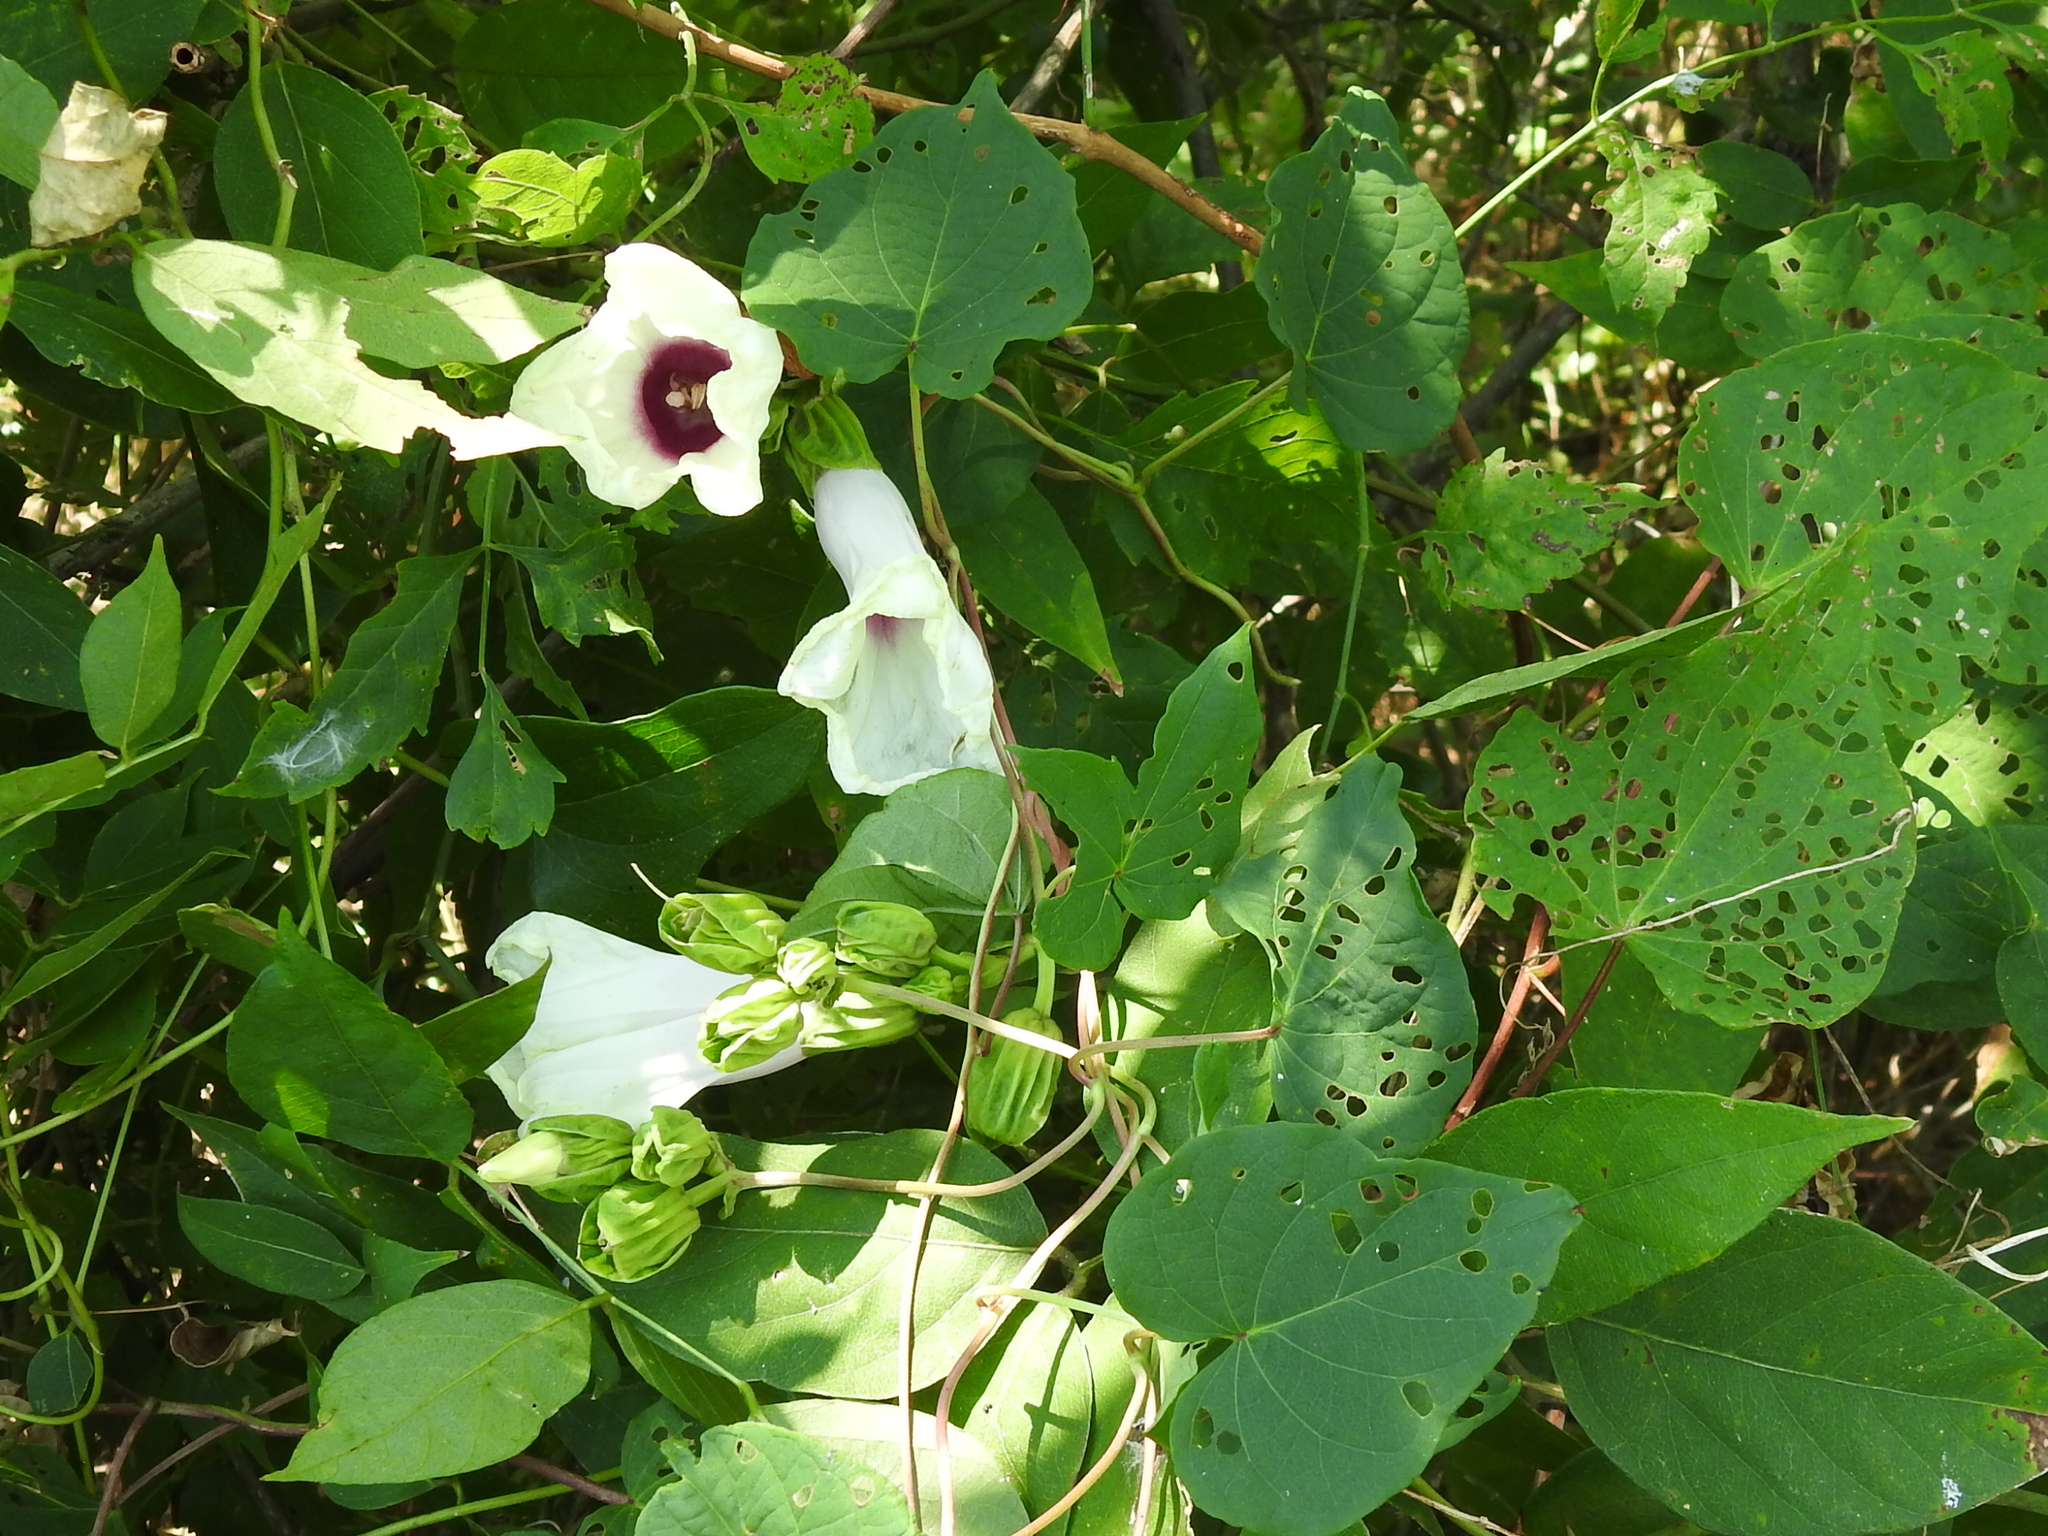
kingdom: Plantae
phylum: Tracheophyta
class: Magnoliopsida
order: Solanales
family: Convolvulaceae
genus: Ipomoea
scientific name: Ipomoea pandurata
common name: Man-of-the-earth
